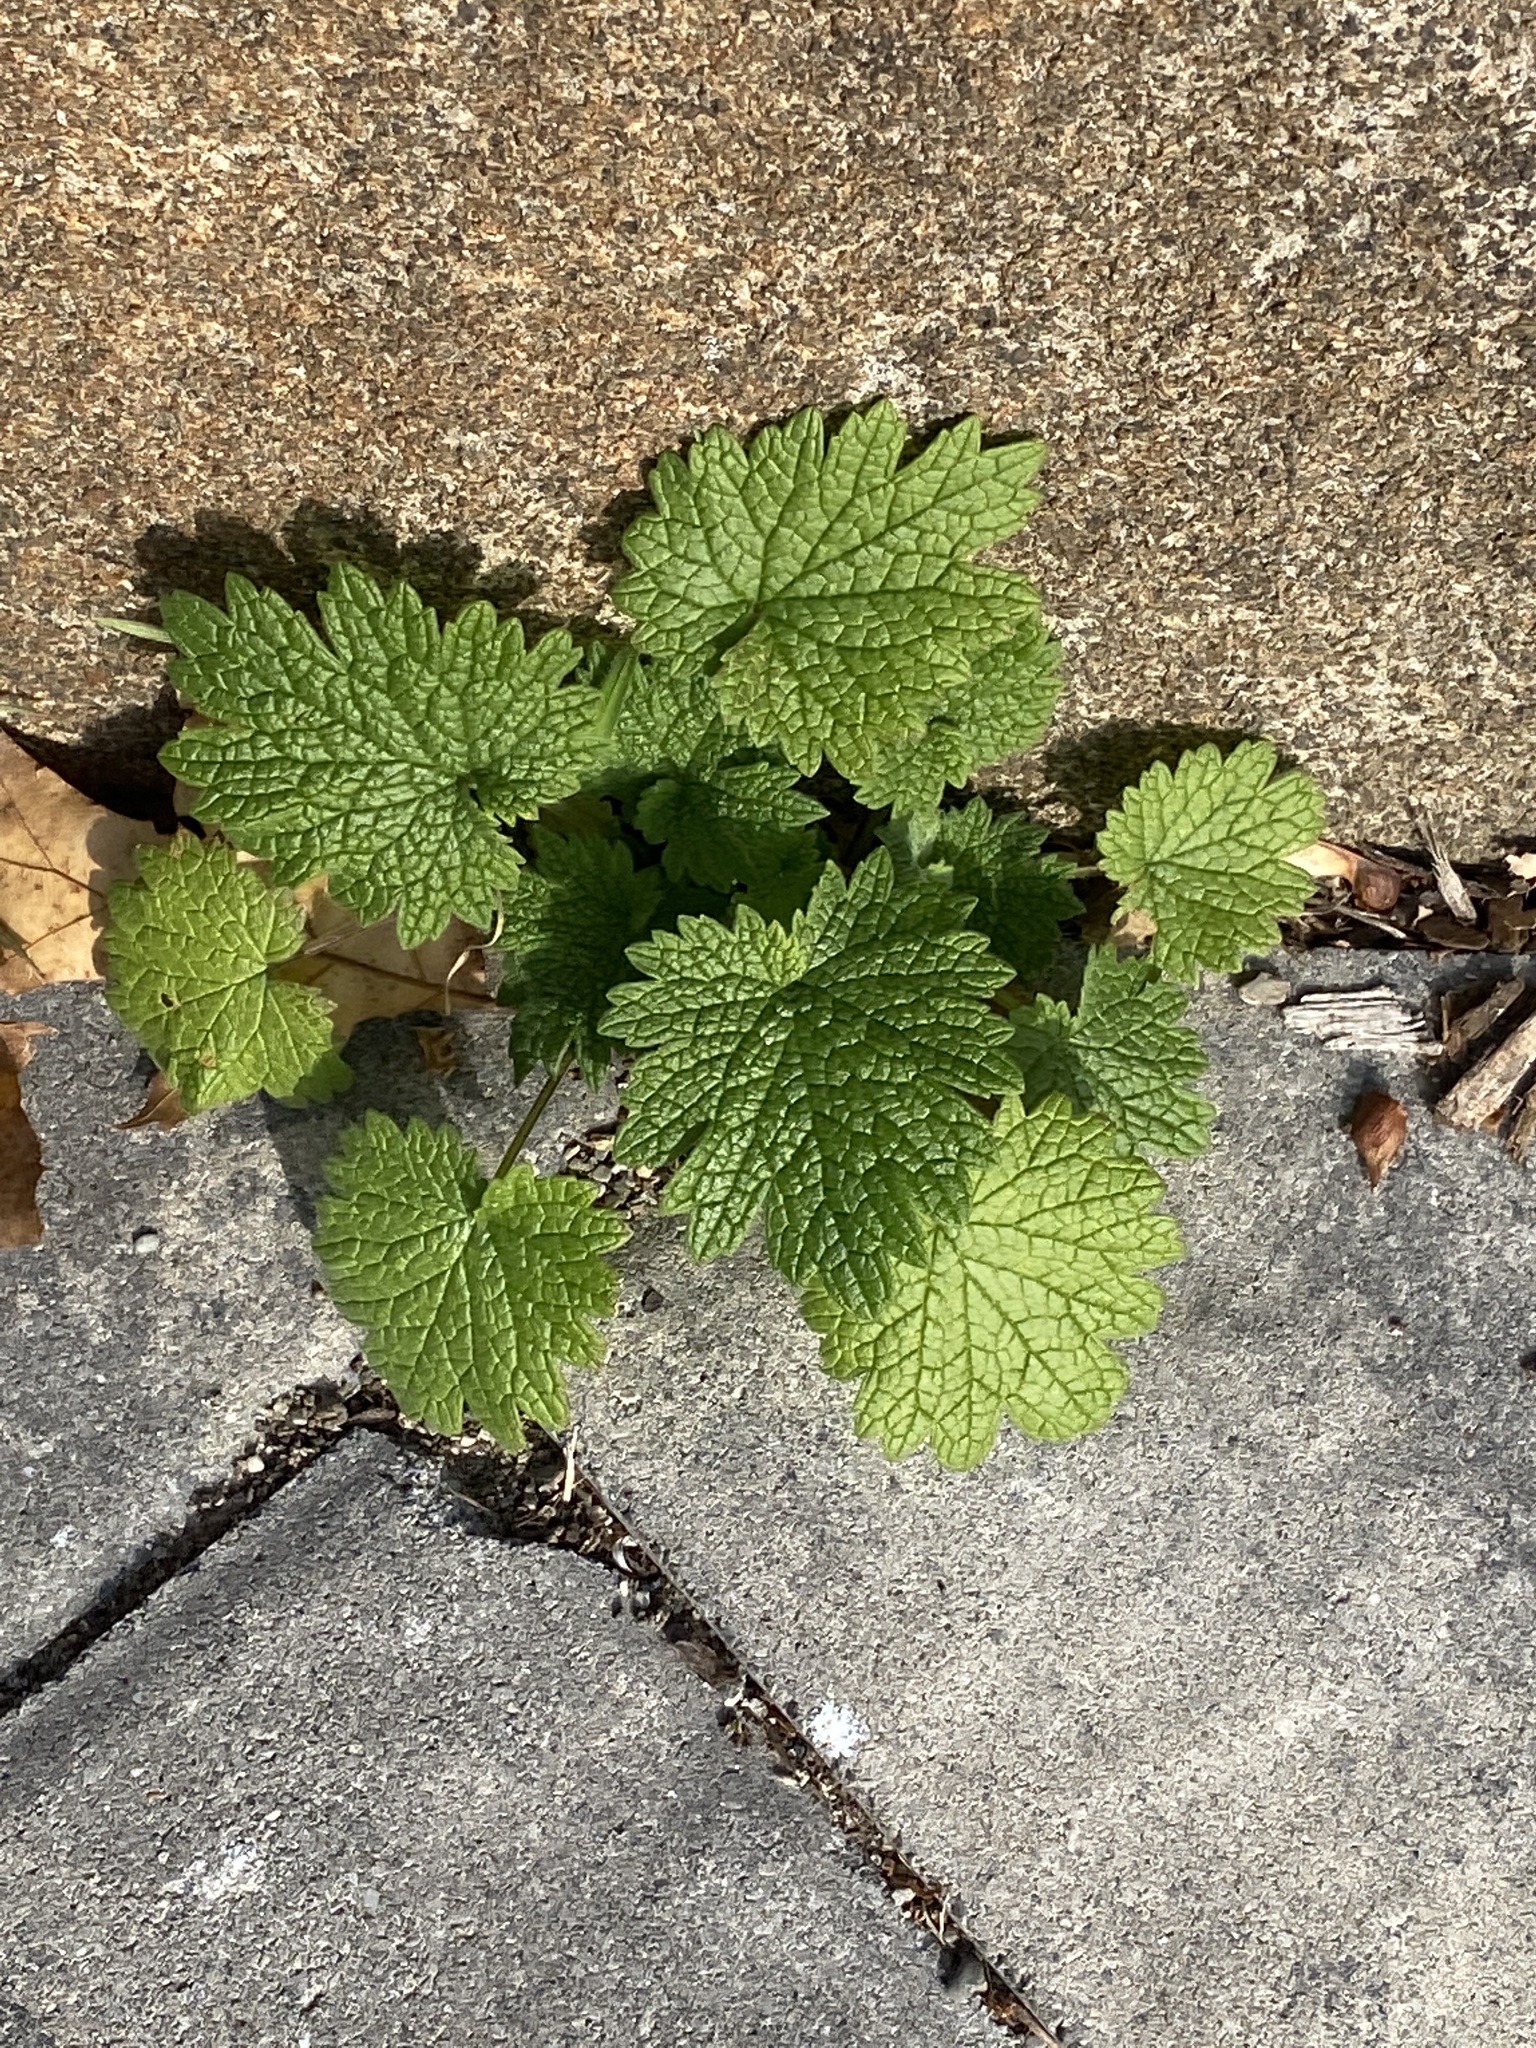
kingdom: Plantae
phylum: Tracheophyta
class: Magnoliopsida
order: Lamiales
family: Lamiaceae
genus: Leonurus
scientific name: Leonurus cardiaca
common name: Motherwort
